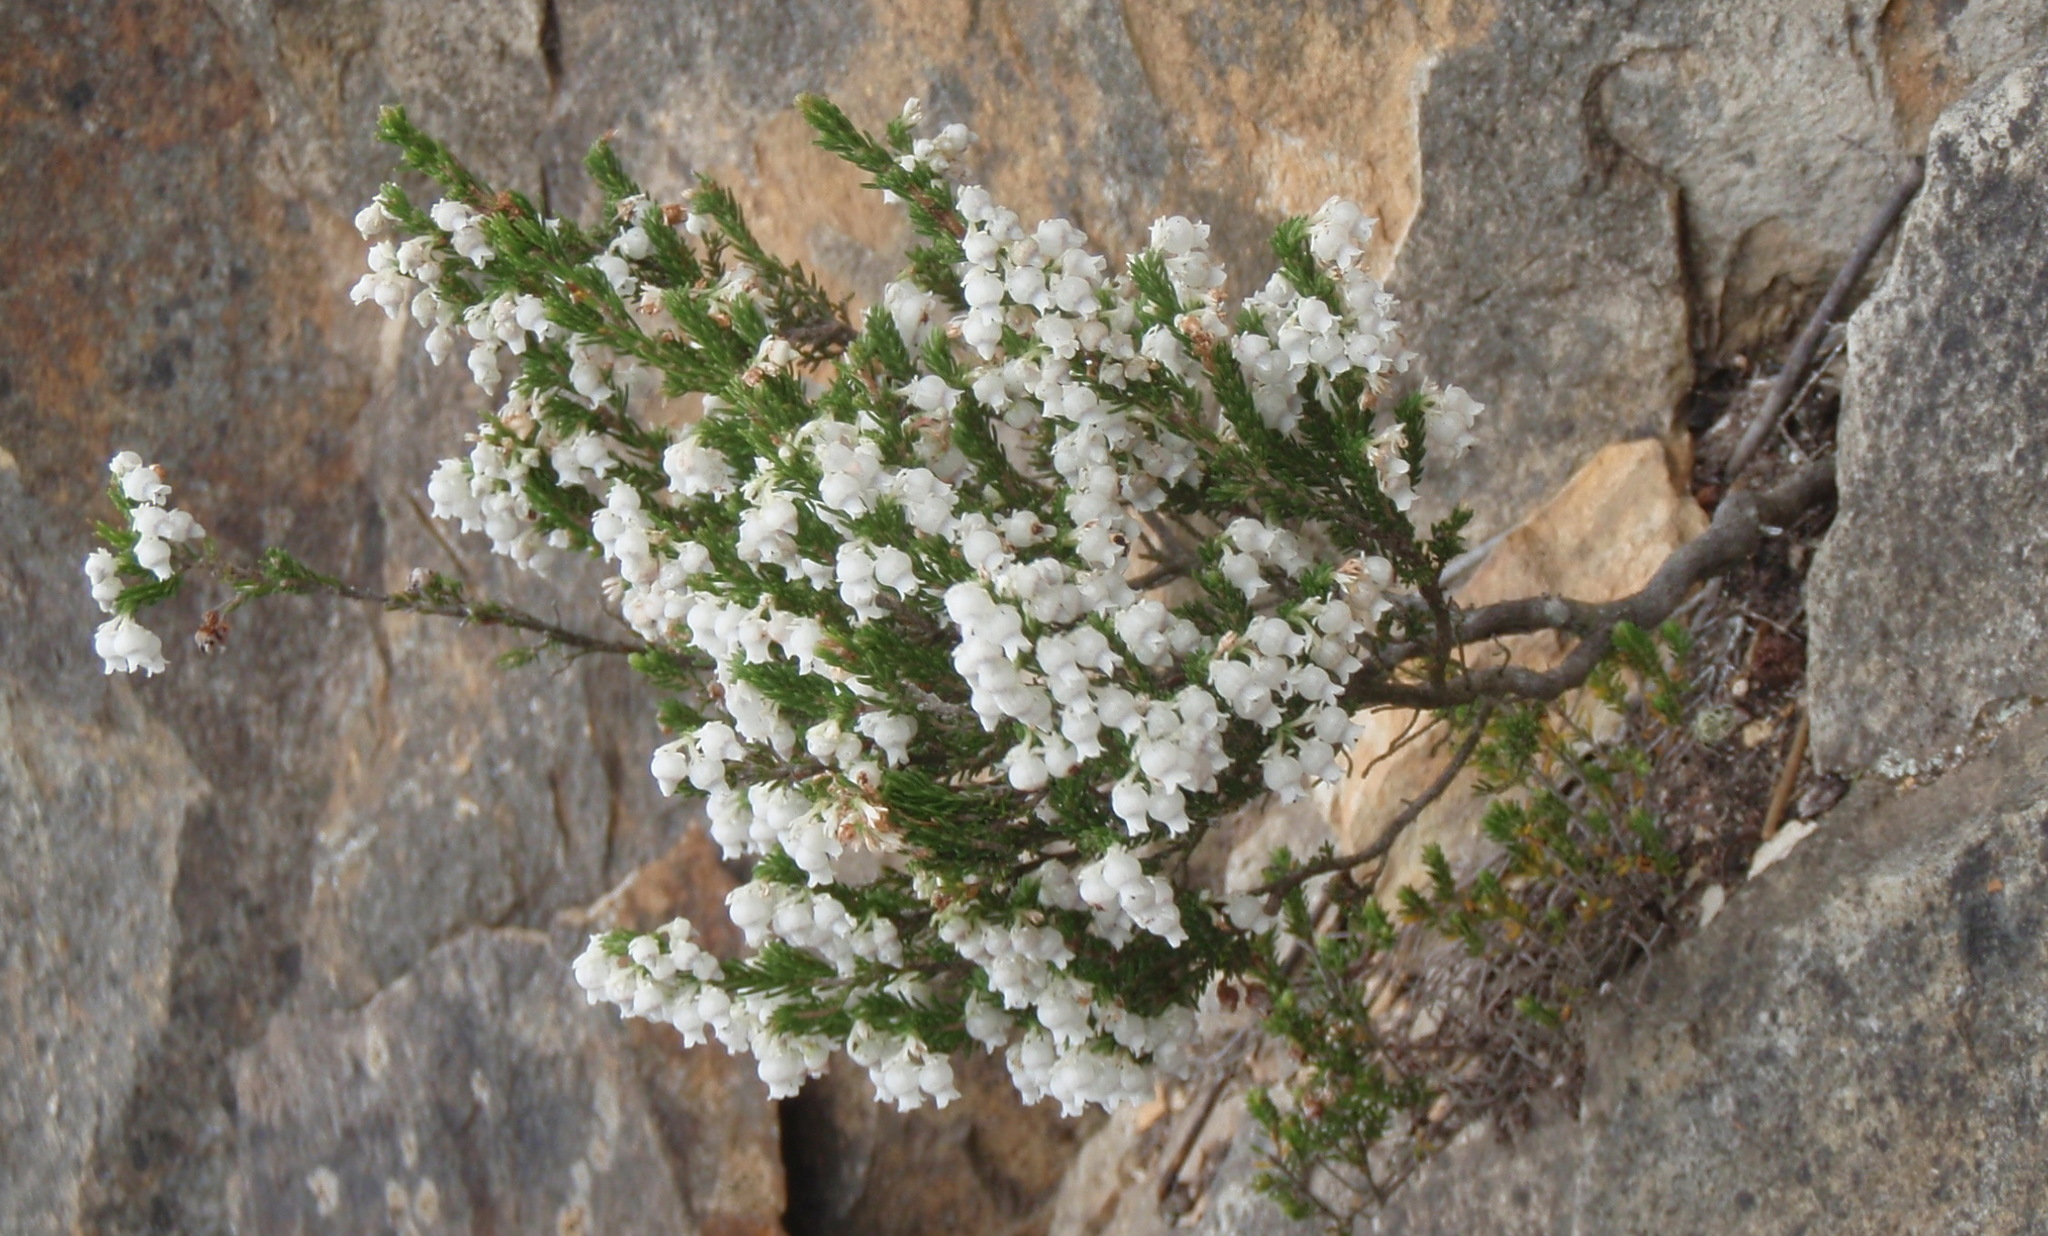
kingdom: Plantae
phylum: Tracheophyta
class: Magnoliopsida
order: Ericales
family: Ericaceae
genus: Erica
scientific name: Erica glomiflora
